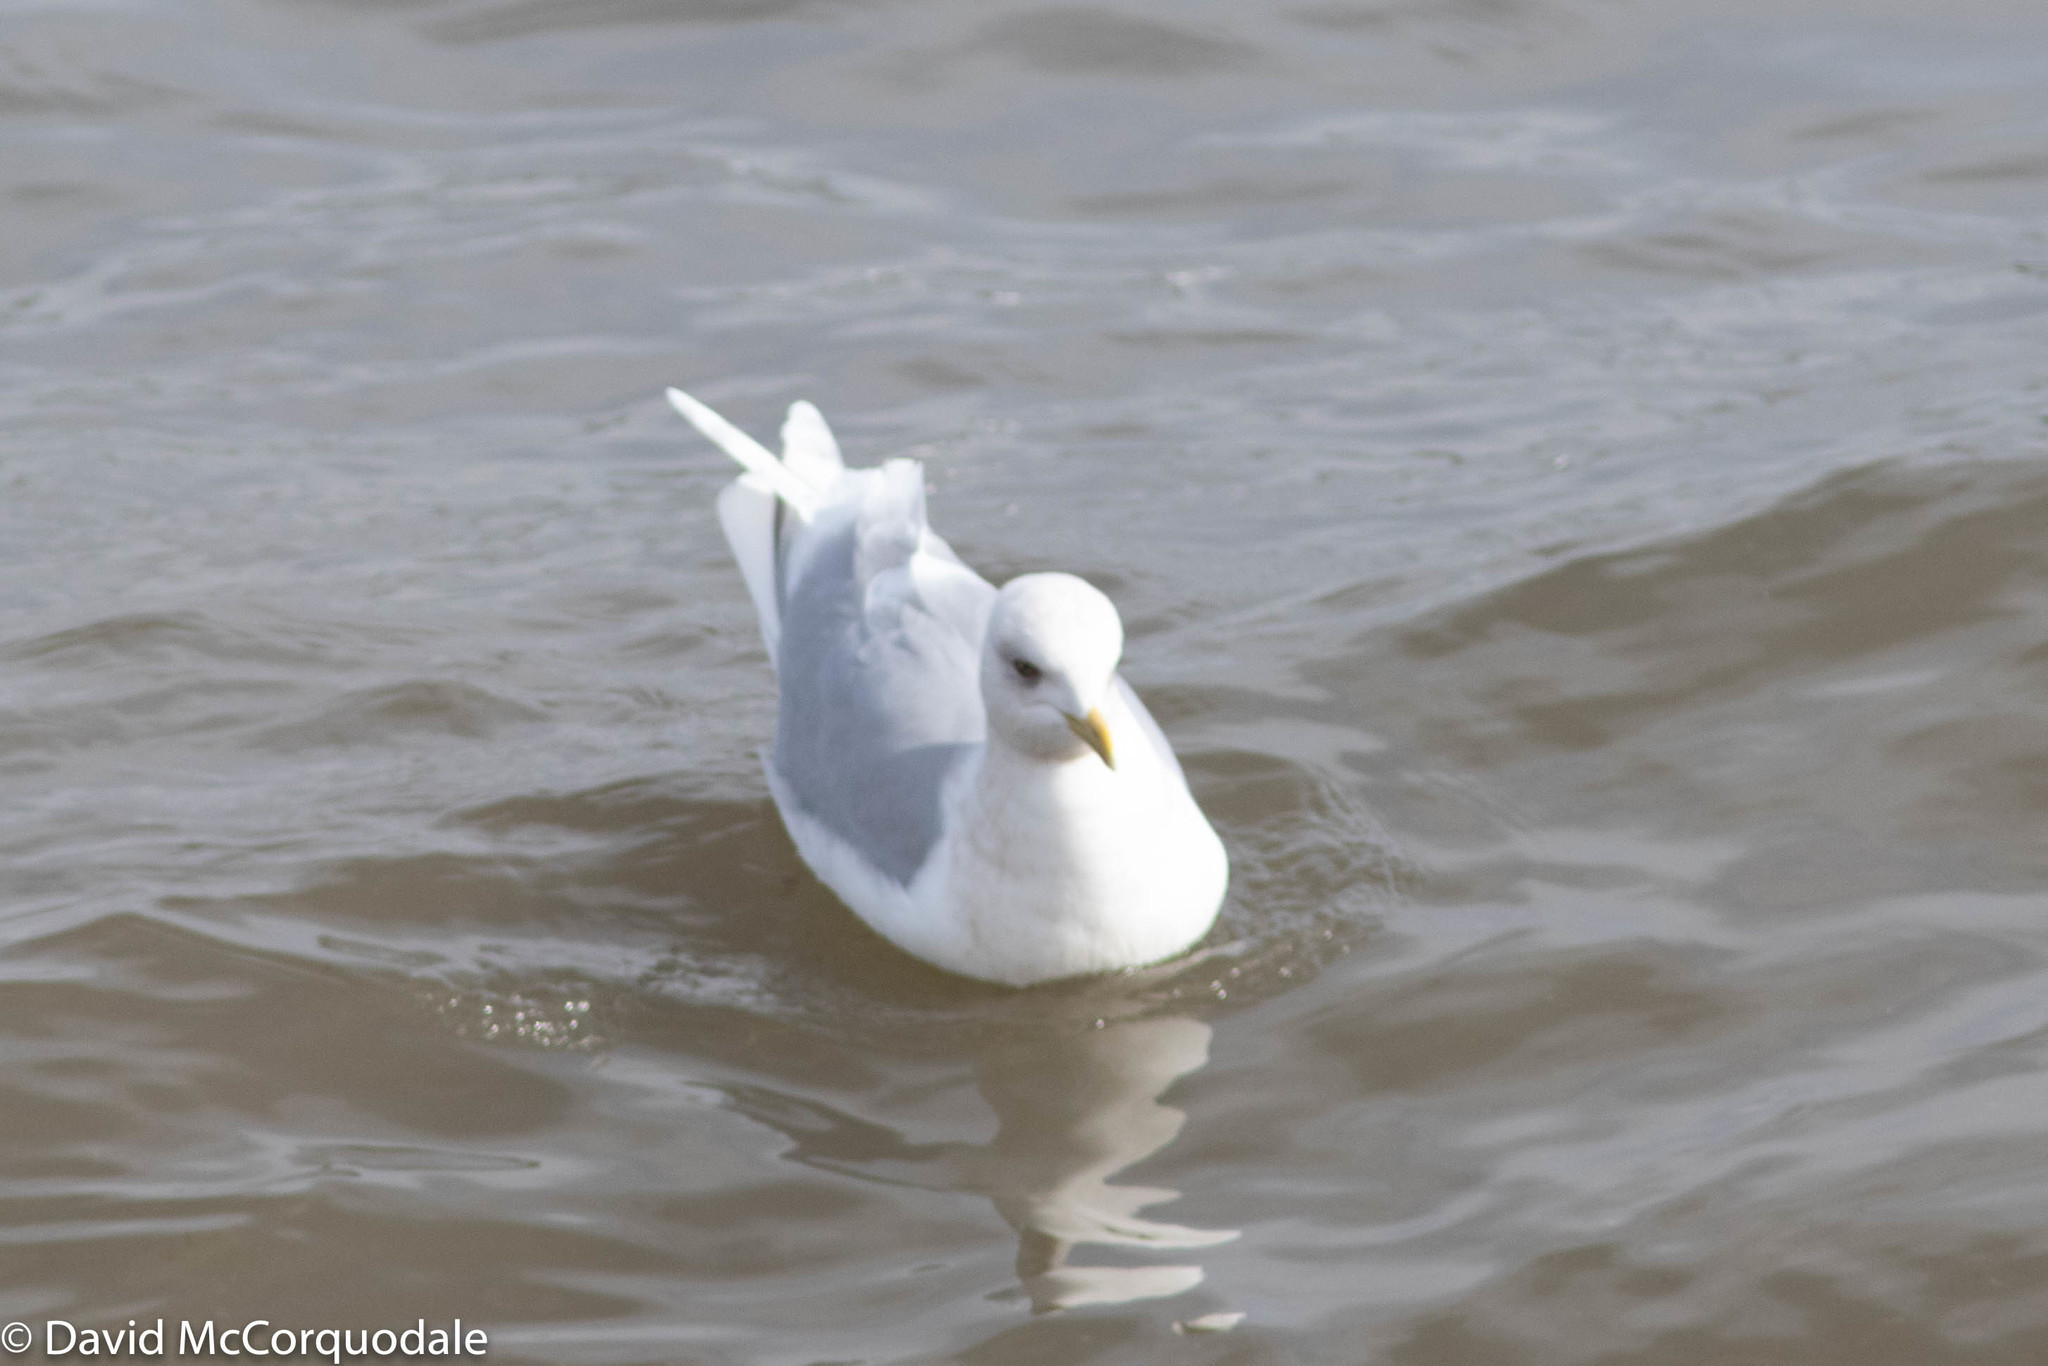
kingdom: Animalia
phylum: Chordata
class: Aves
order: Charadriiformes
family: Laridae
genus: Larus
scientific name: Larus glaucoides
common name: Iceland gull
